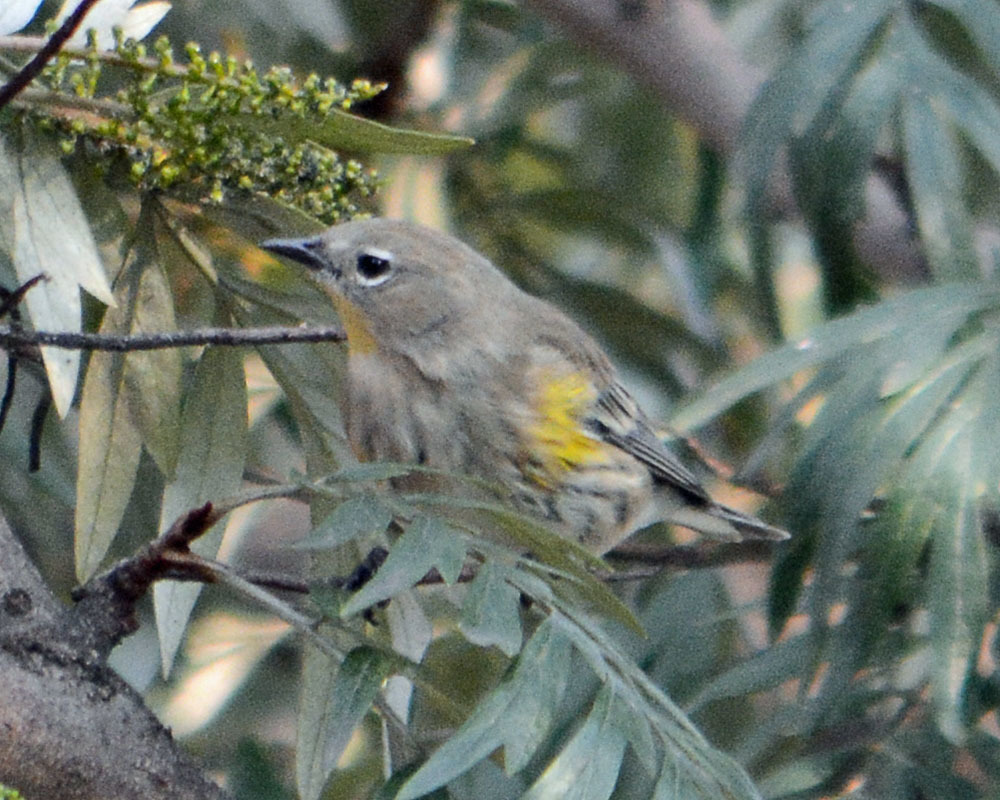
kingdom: Animalia
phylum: Chordata
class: Aves
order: Passeriformes
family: Parulidae
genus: Setophaga
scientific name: Setophaga auduboni
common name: Audubon's warbler
